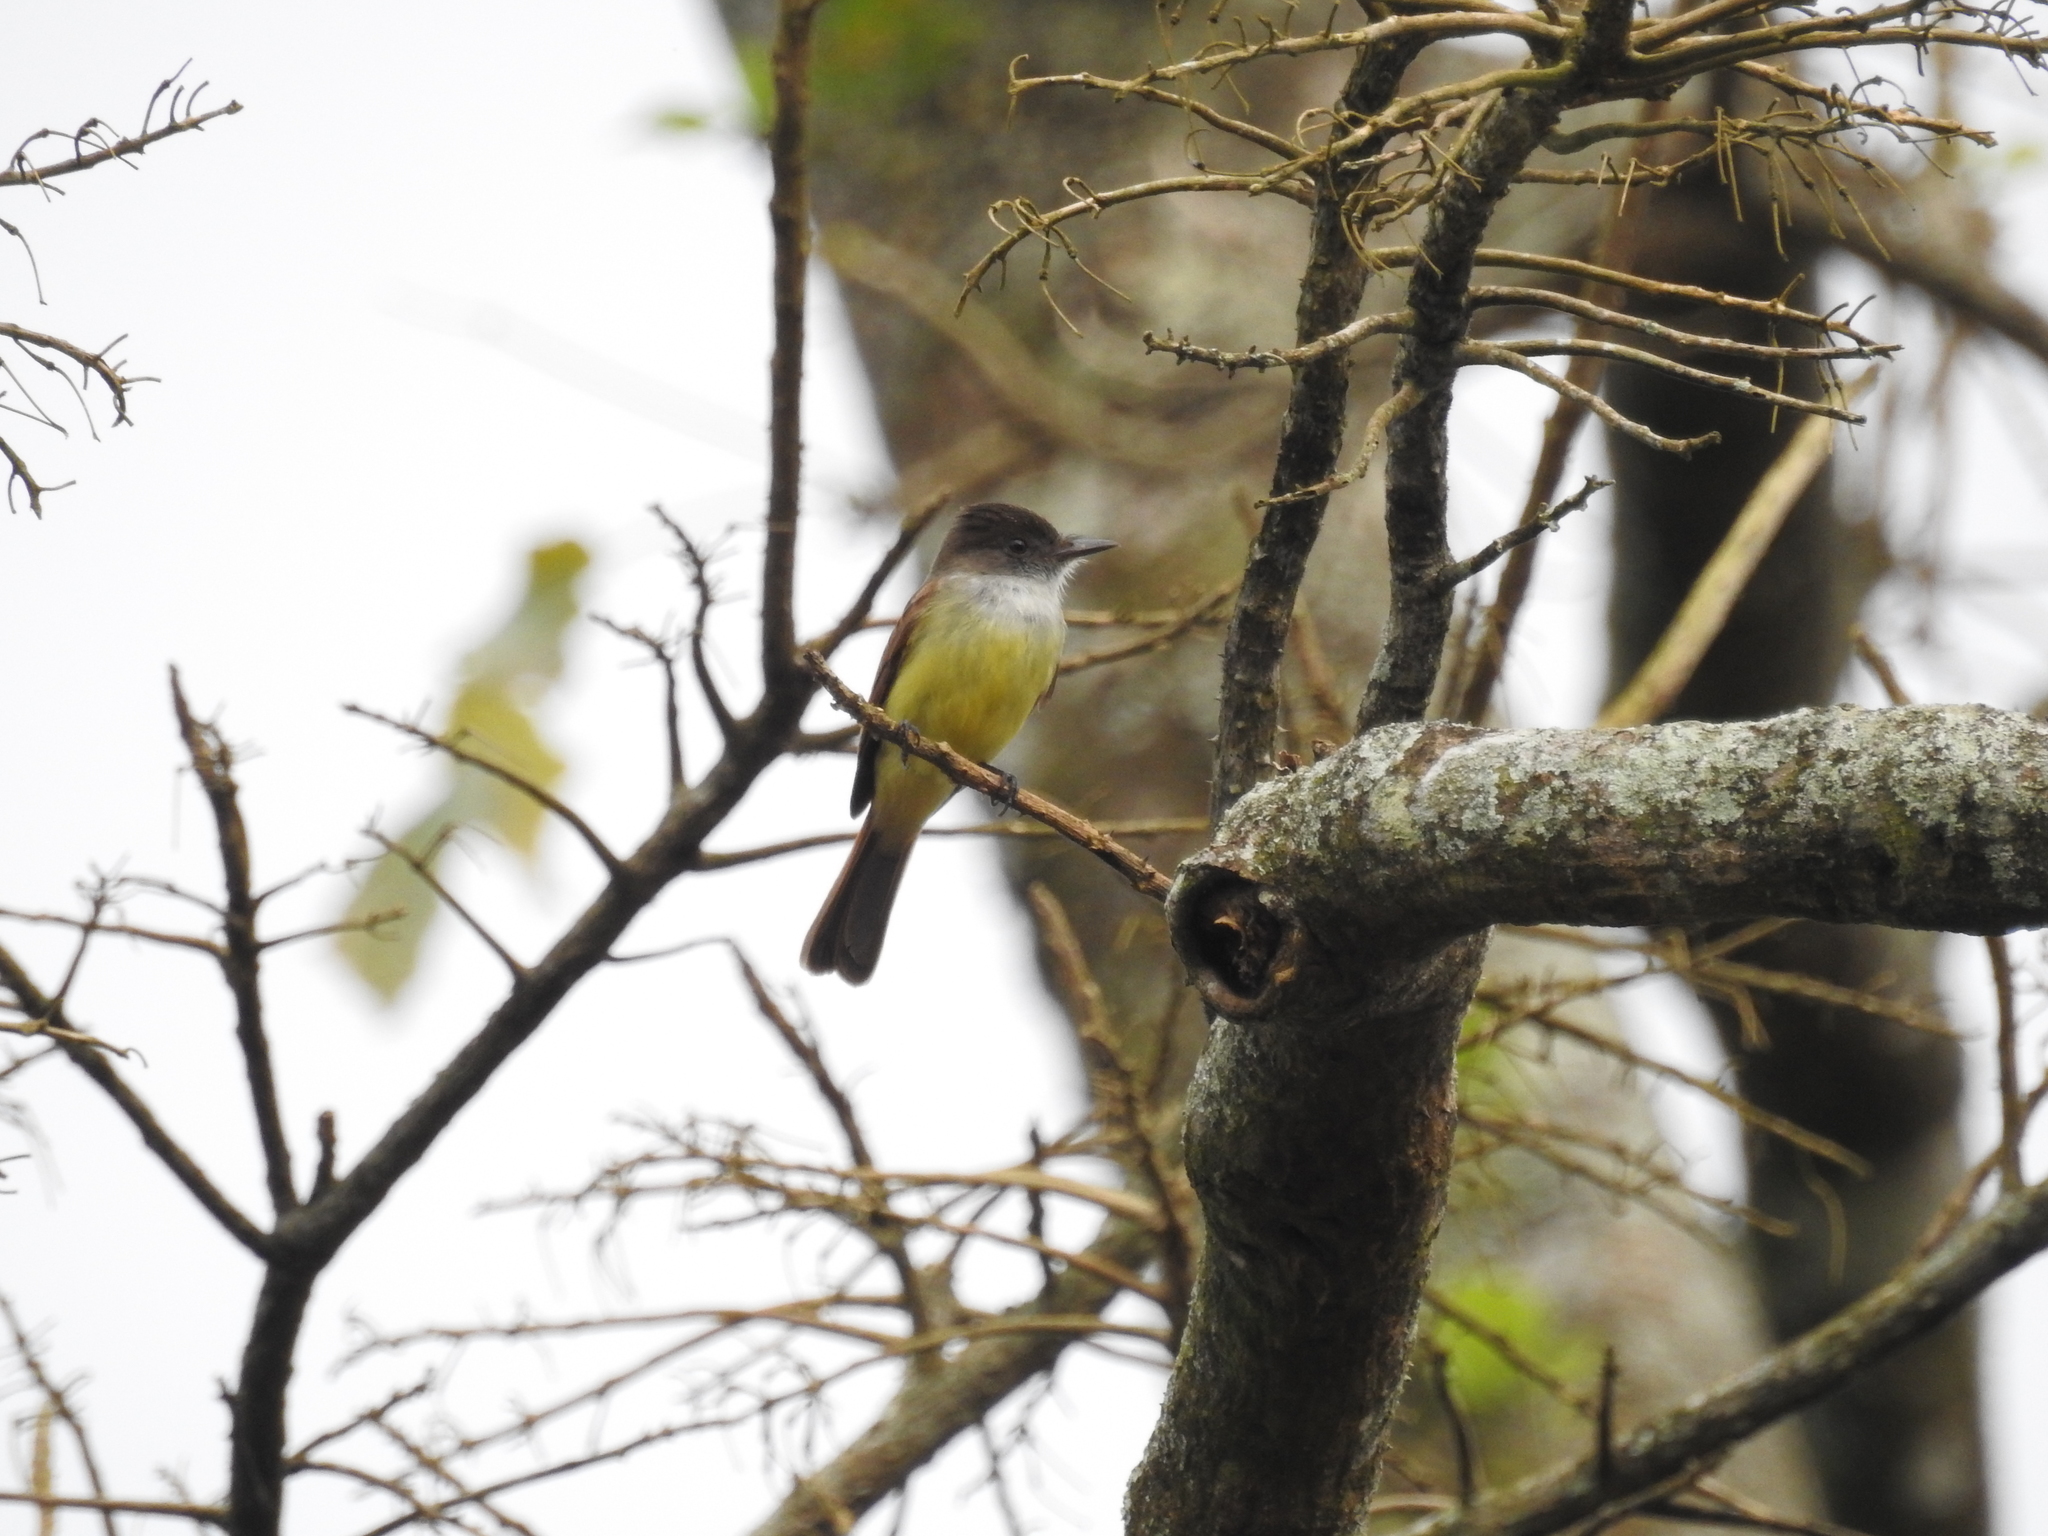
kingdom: Animalia
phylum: Chordata
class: Aves
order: Passeriformes
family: Tyrannidae
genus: Myiarchus
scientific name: Myiarchus tuberculifer
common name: Dusky-capped flycatcher
